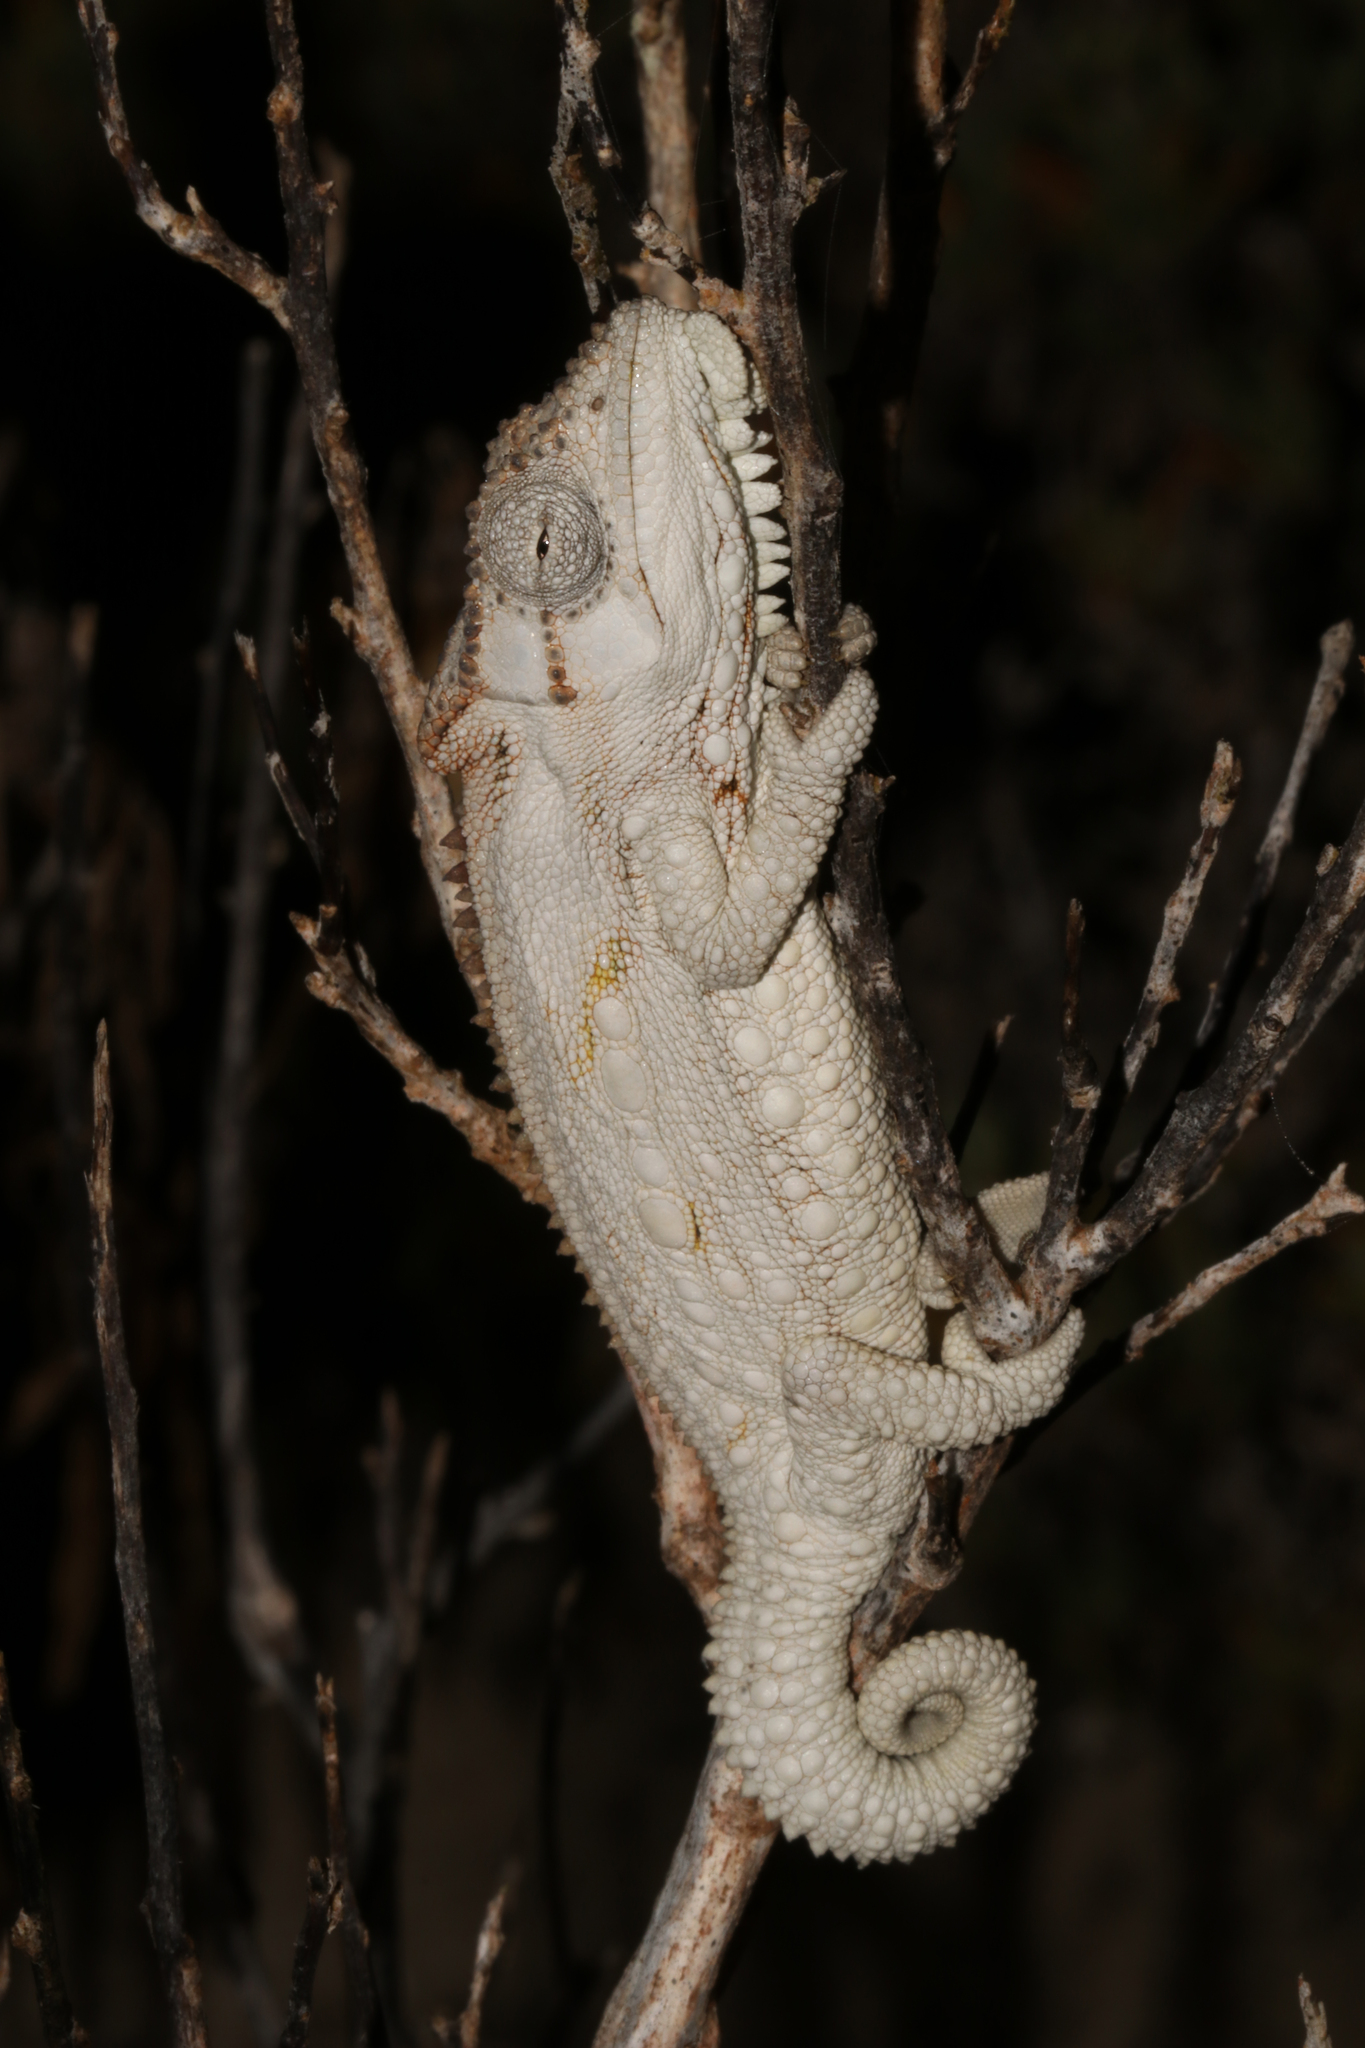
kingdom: Animalia
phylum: Chordata
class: Squamata
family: Chamaeleonidae
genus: Bradypodion
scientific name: Bradypodion occidentale
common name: Western dwarf chameleon
